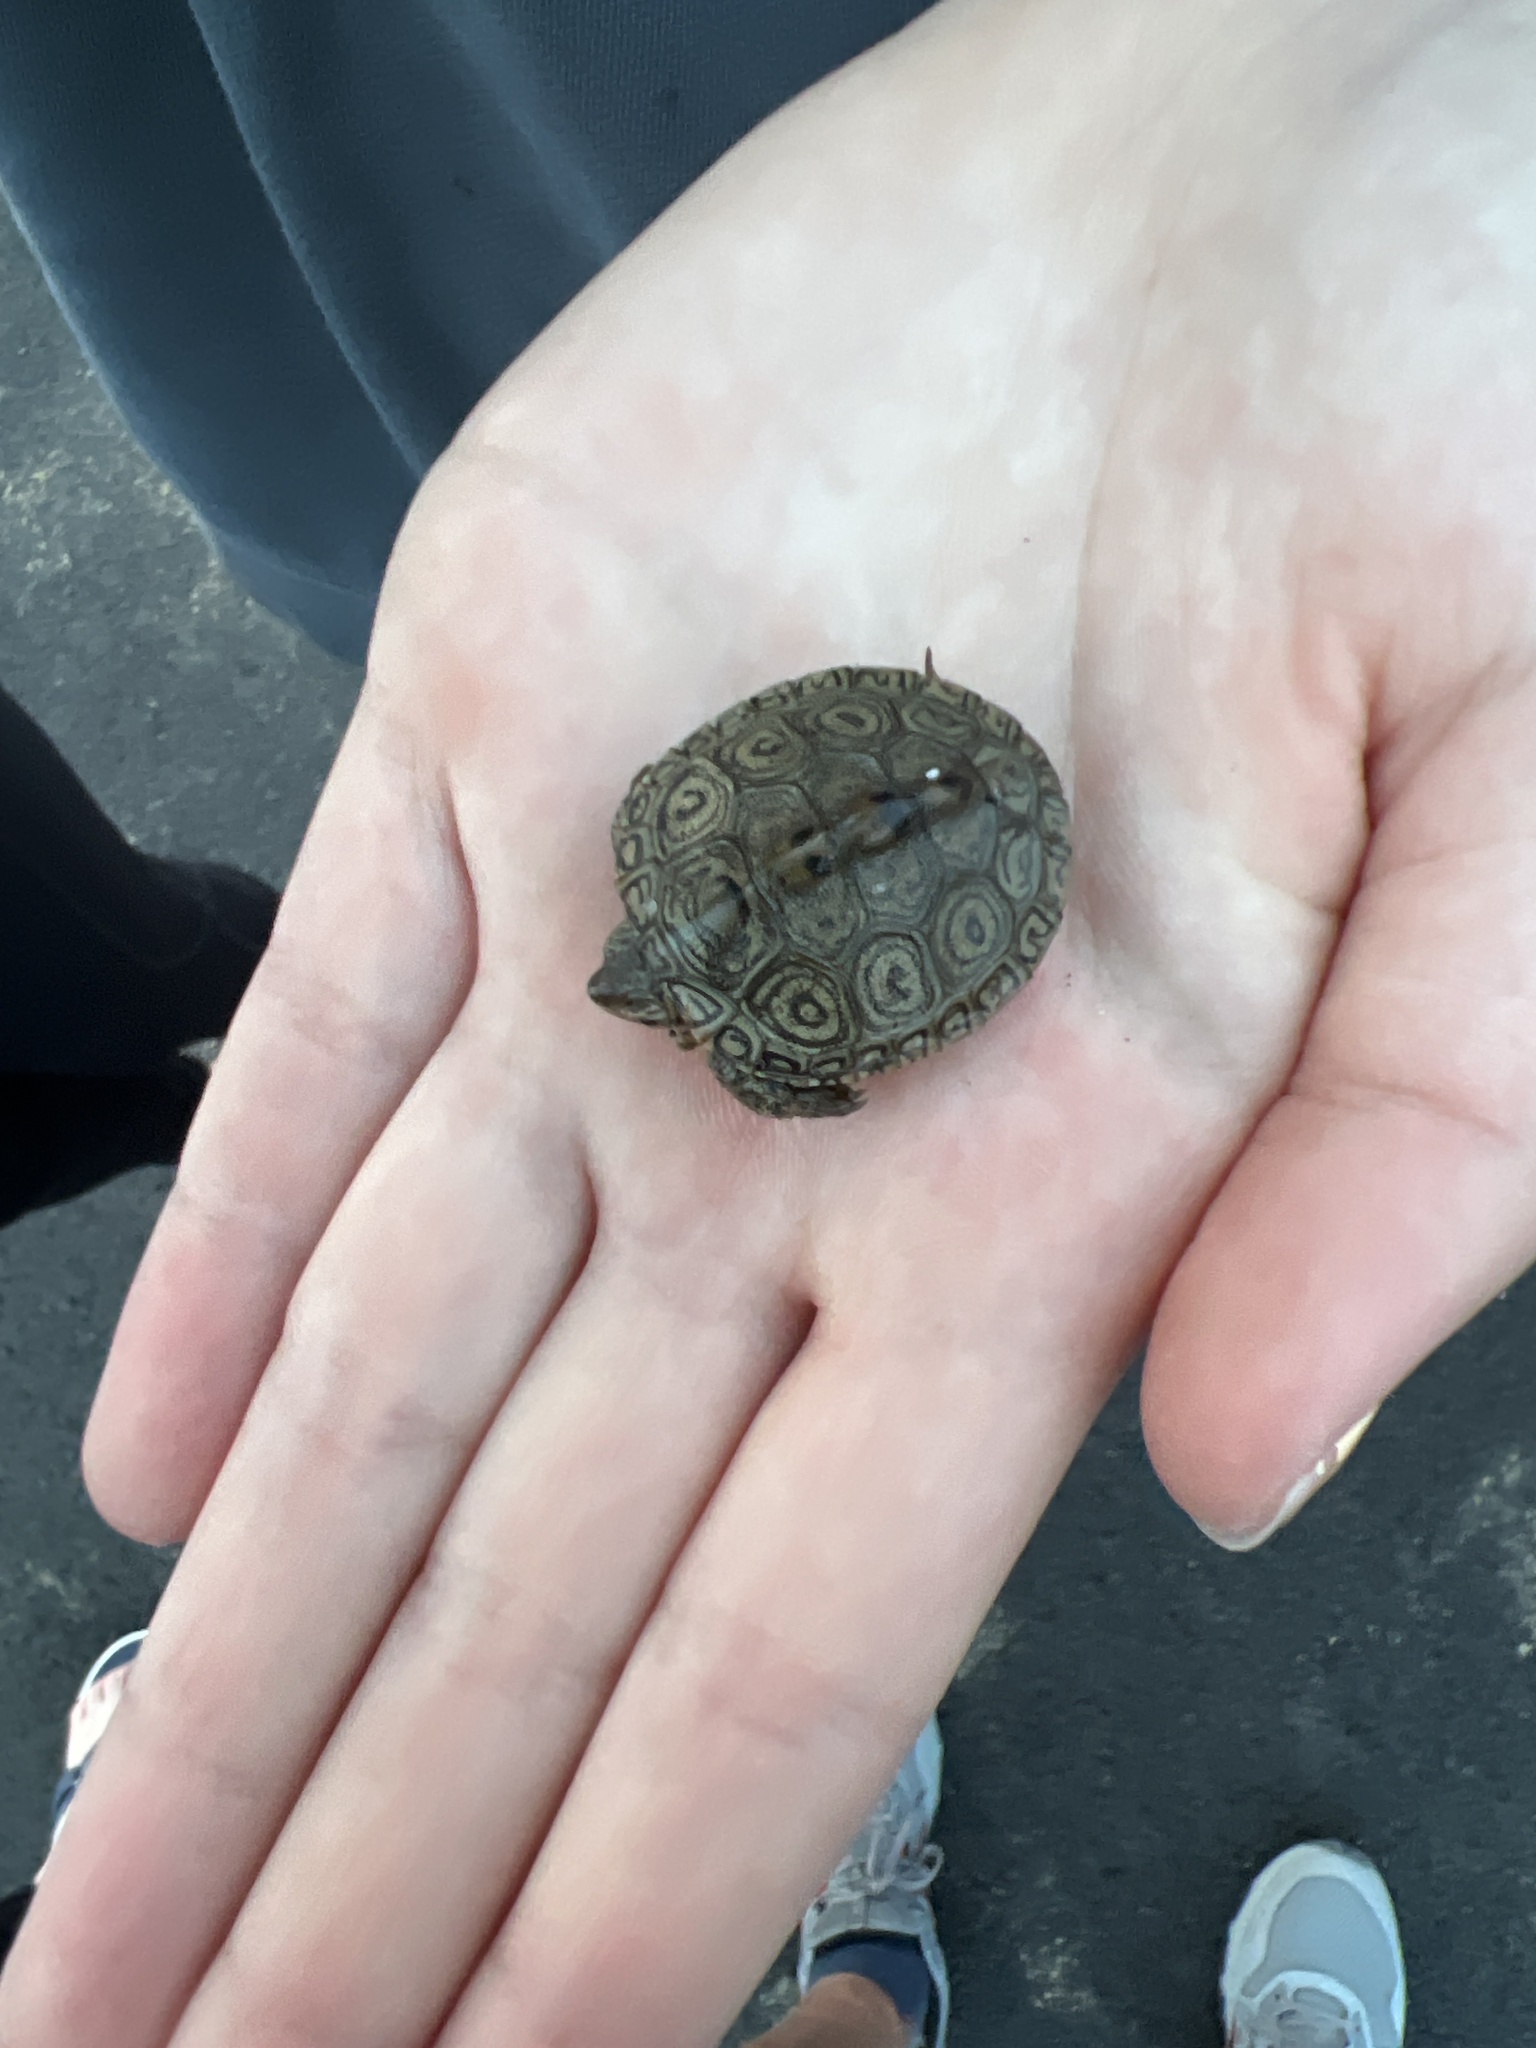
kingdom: Animalia
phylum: Chordata
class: Testudines
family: Emydidae
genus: Malaclemys
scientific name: Malaclemys terrapin
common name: Diamondback terrapin
